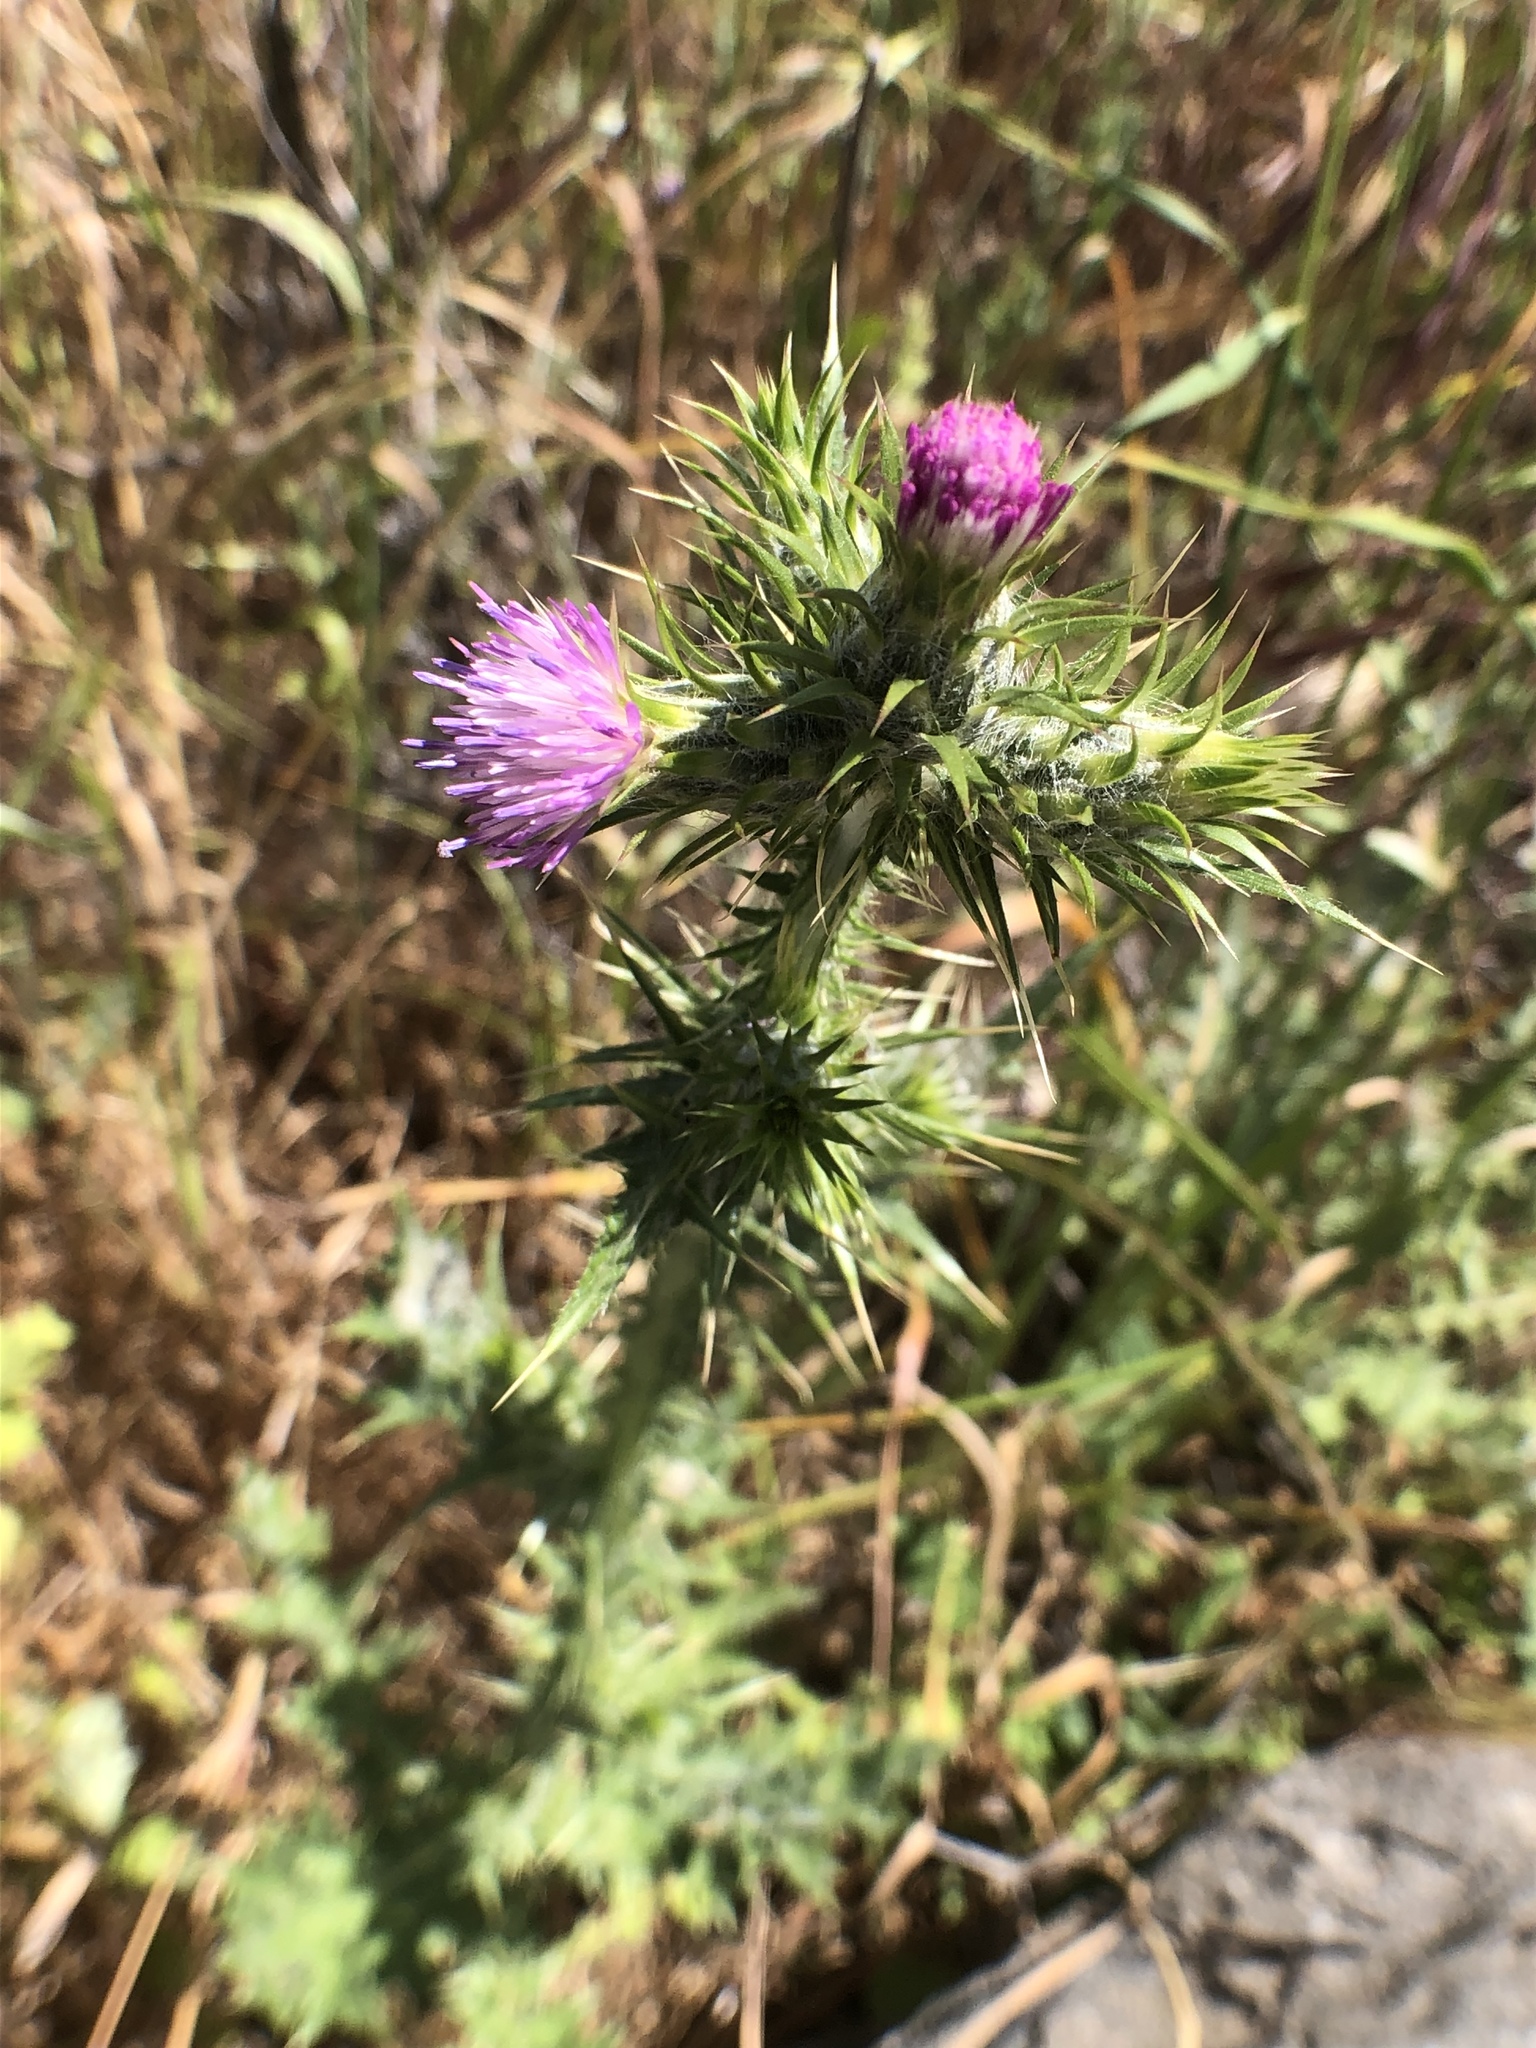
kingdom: Plantae
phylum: Tracheophyta
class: Magnoliopsida
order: Asterales
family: Asteraceae
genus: Carduus
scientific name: Carduus pycnocephalus
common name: Plymouth thistle
